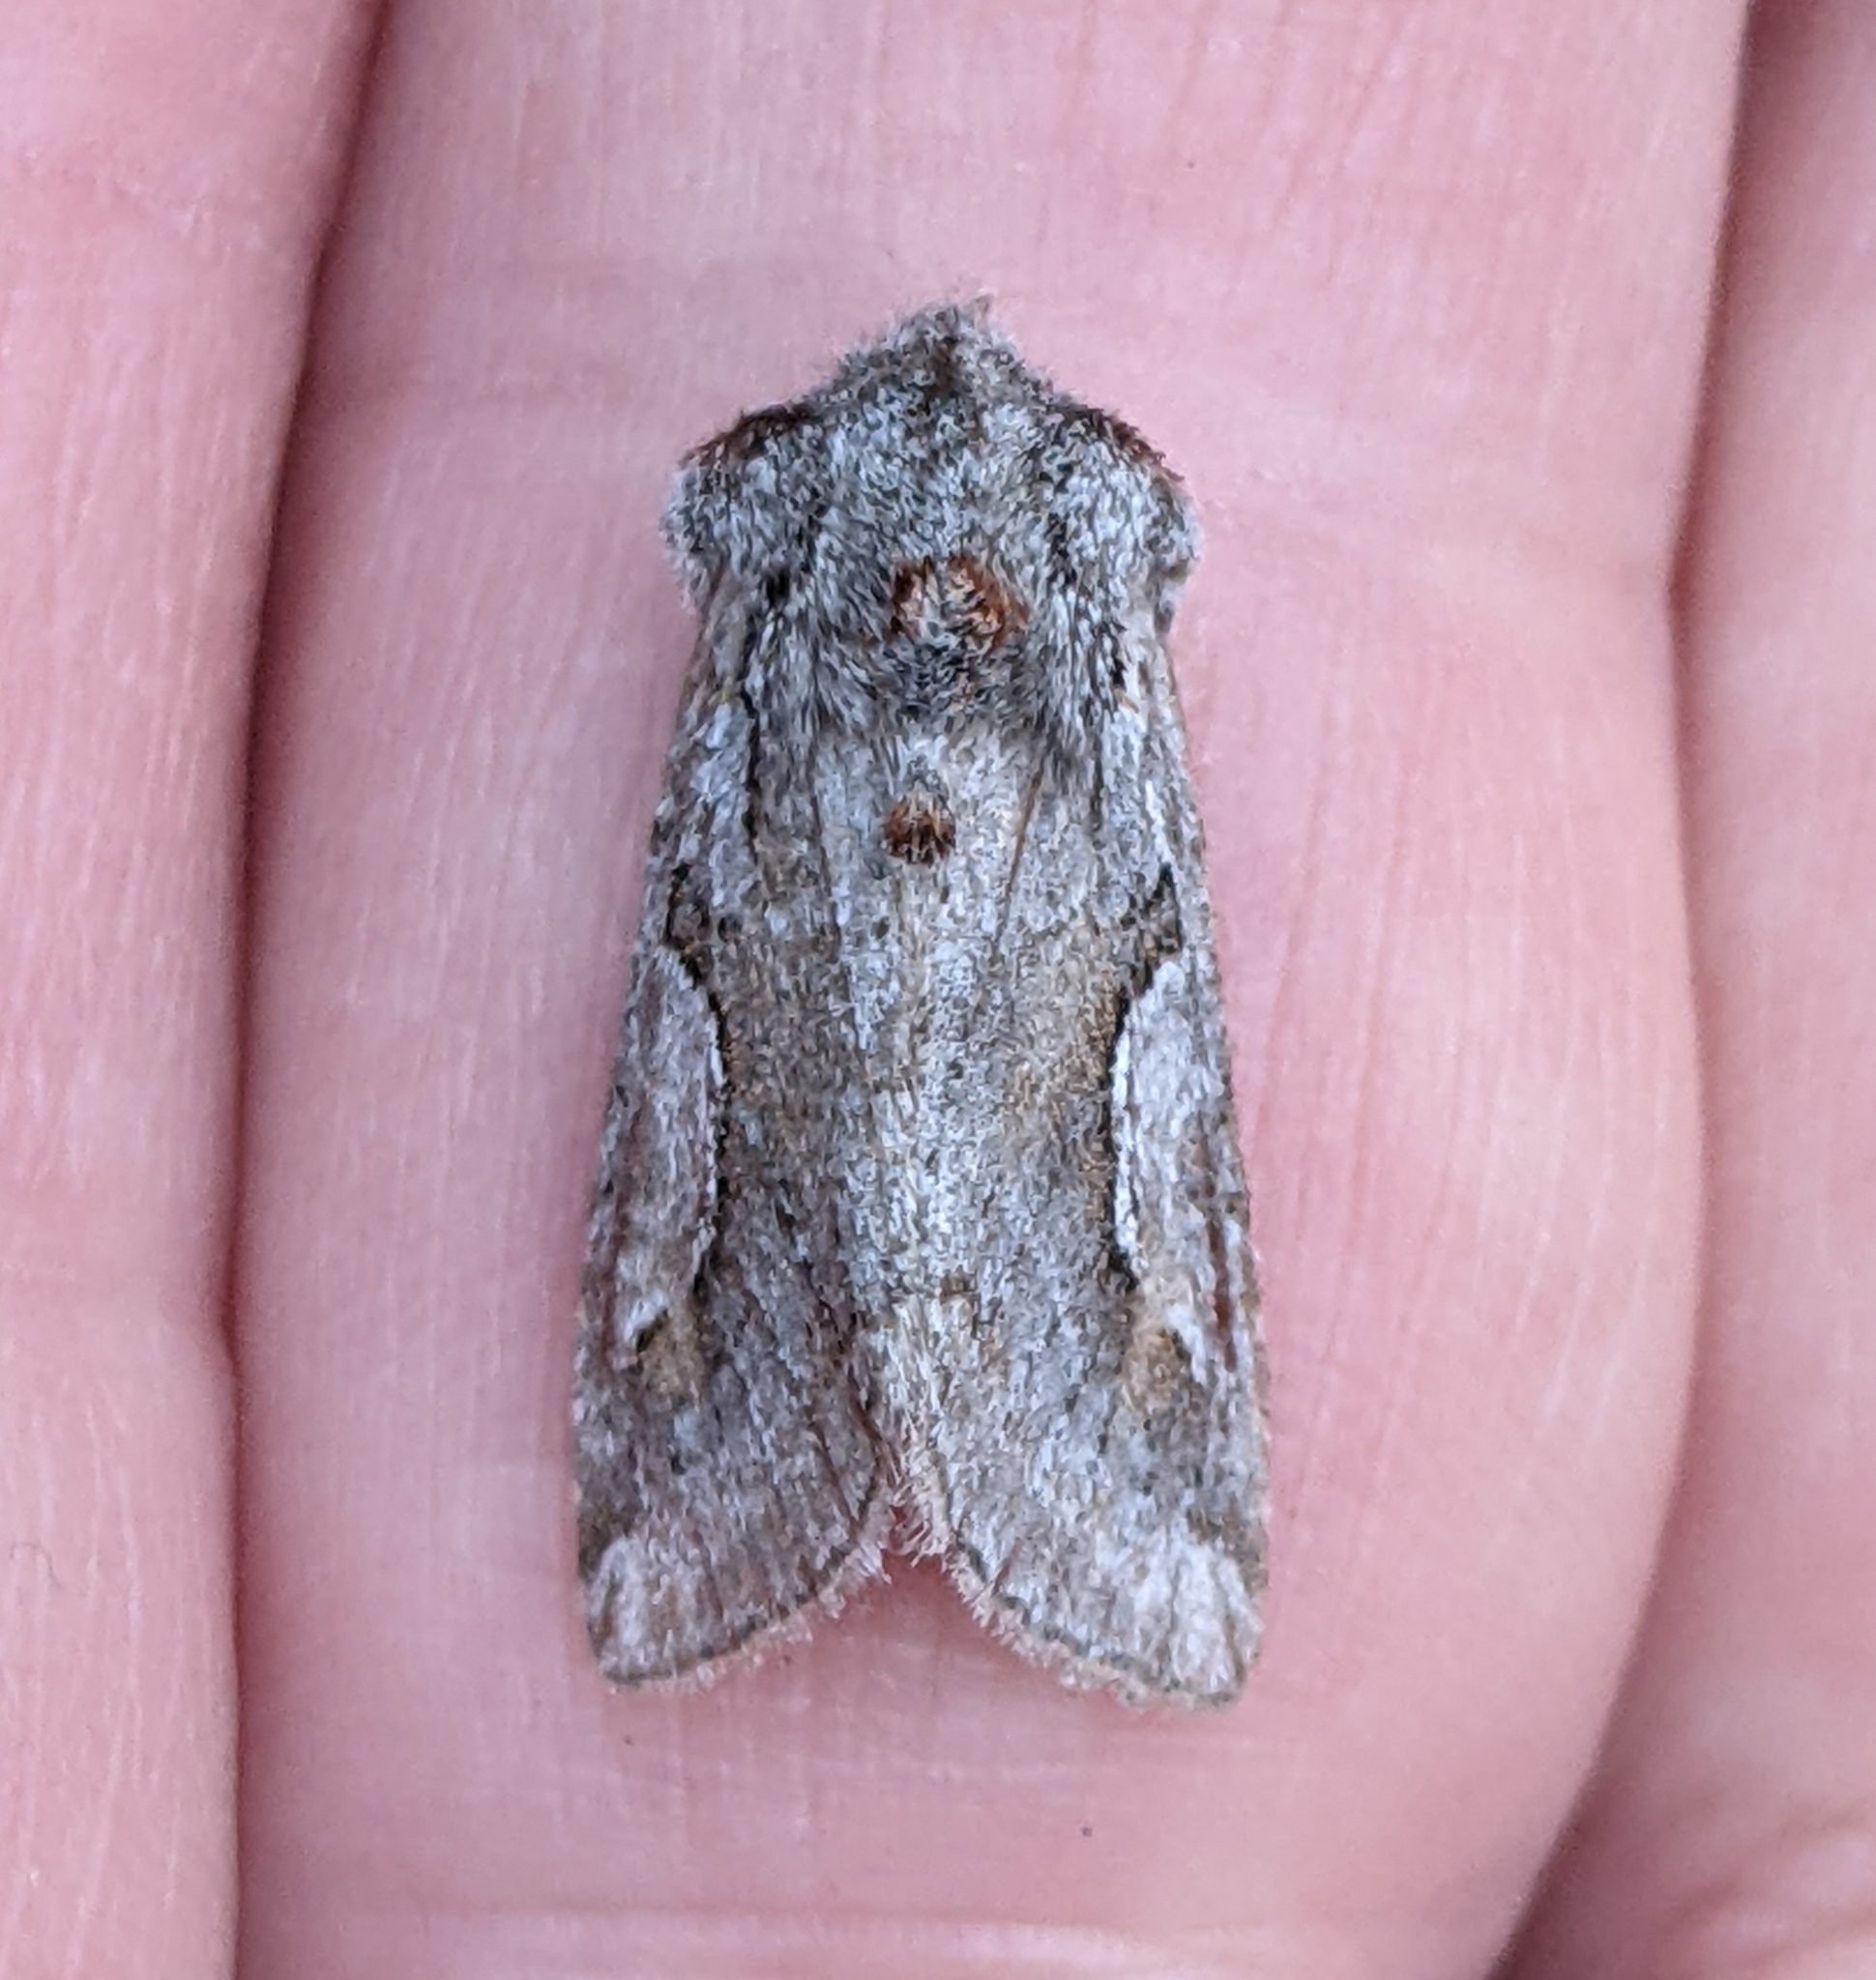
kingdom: Animalia
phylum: Arthropoda
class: Insecta
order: Lepidoptera
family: Noctuidae
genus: Stretchia
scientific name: Stretchia plusiaeformis
